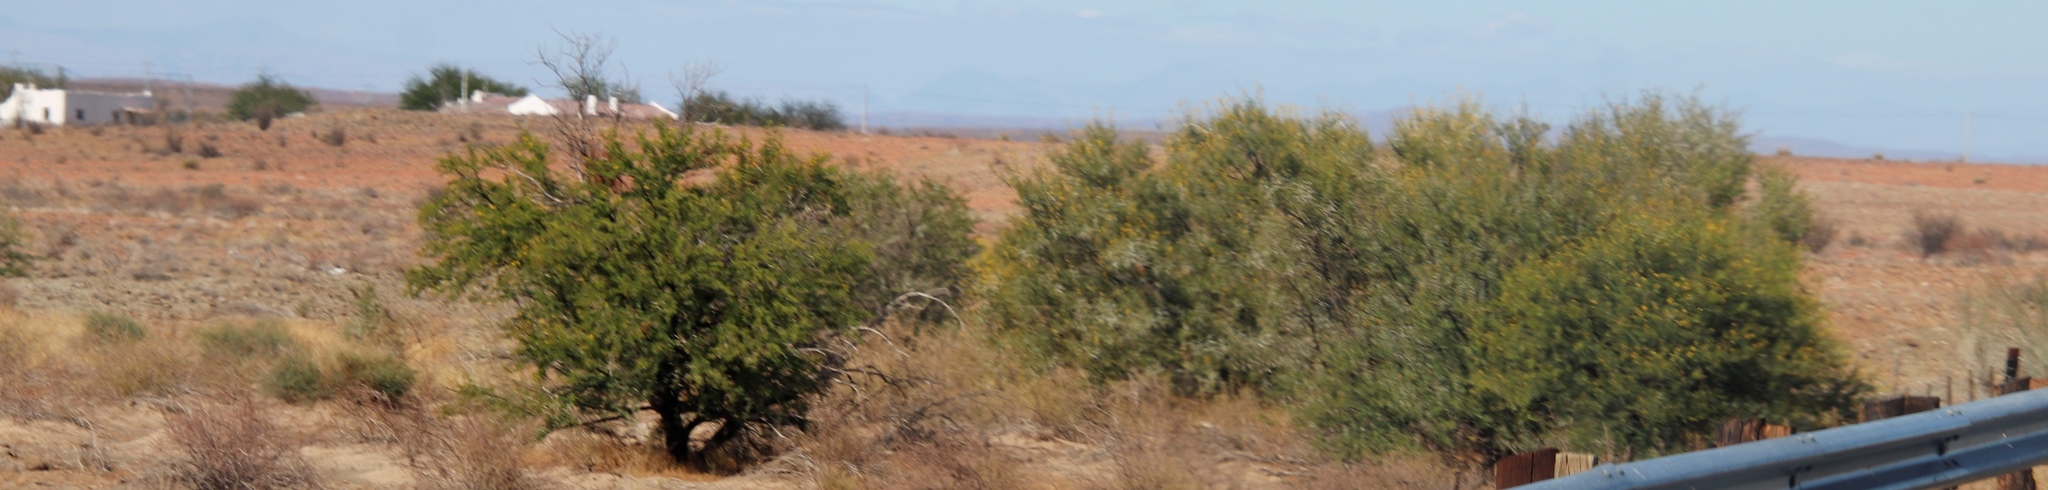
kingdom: Plantae
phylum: Tracheophyta
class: Magnoliopsida
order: Fabales
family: Fabaceae
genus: Vachellia
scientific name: Vachellia karroo
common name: Sweet thorn
